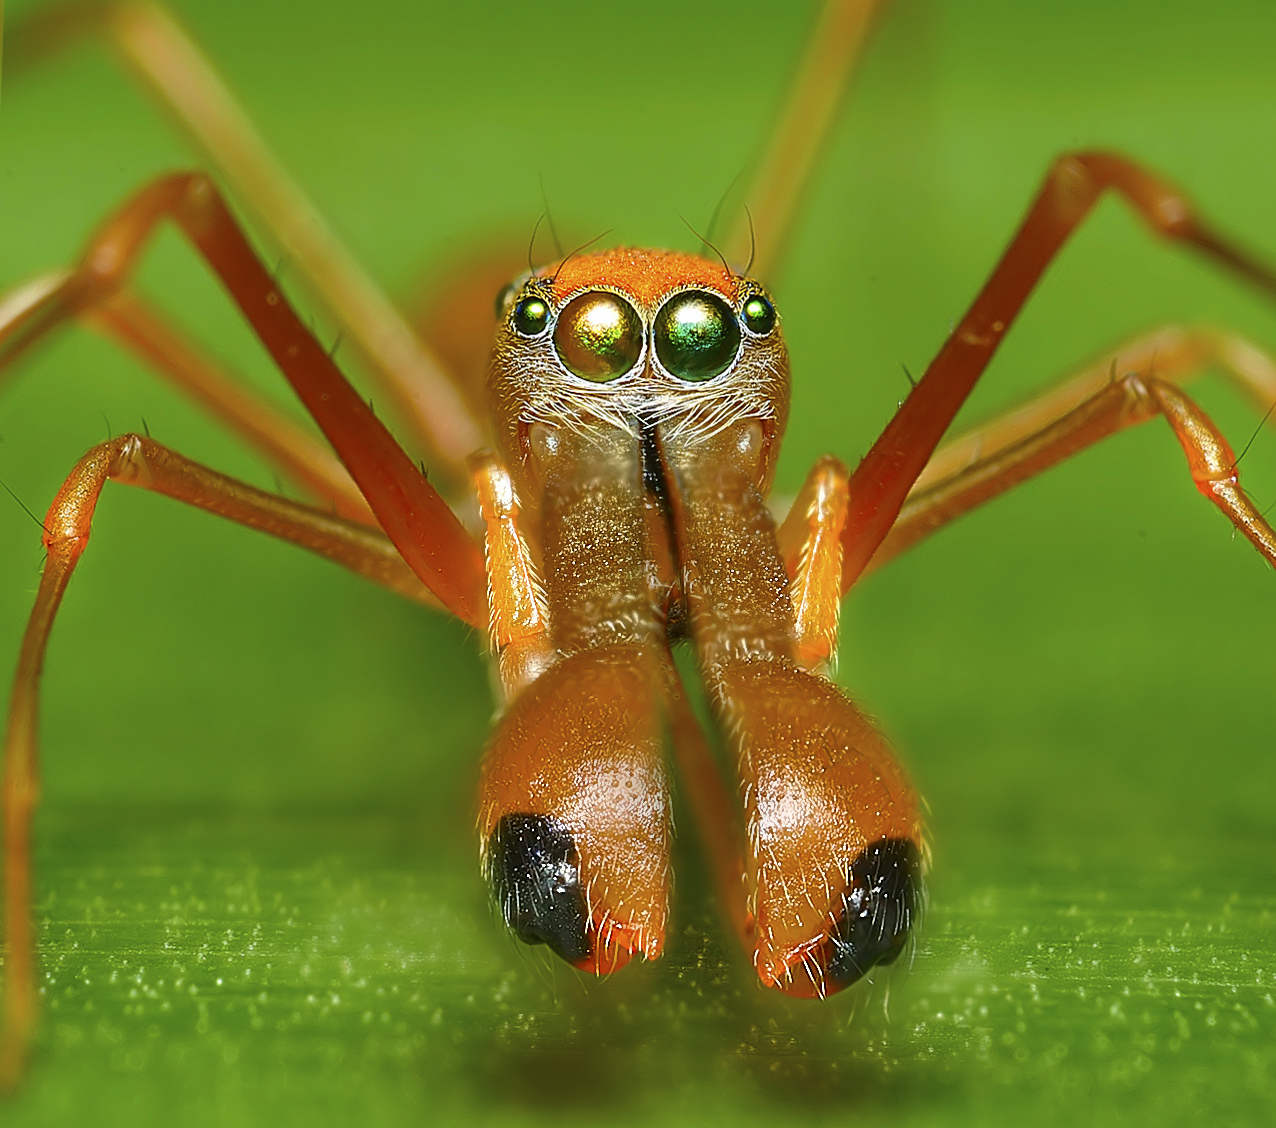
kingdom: Animalia
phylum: Arthropoda
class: Arachnida
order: Araneae
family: Salticidae
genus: Myrmaplata
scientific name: Myrmaplata plataleoides
